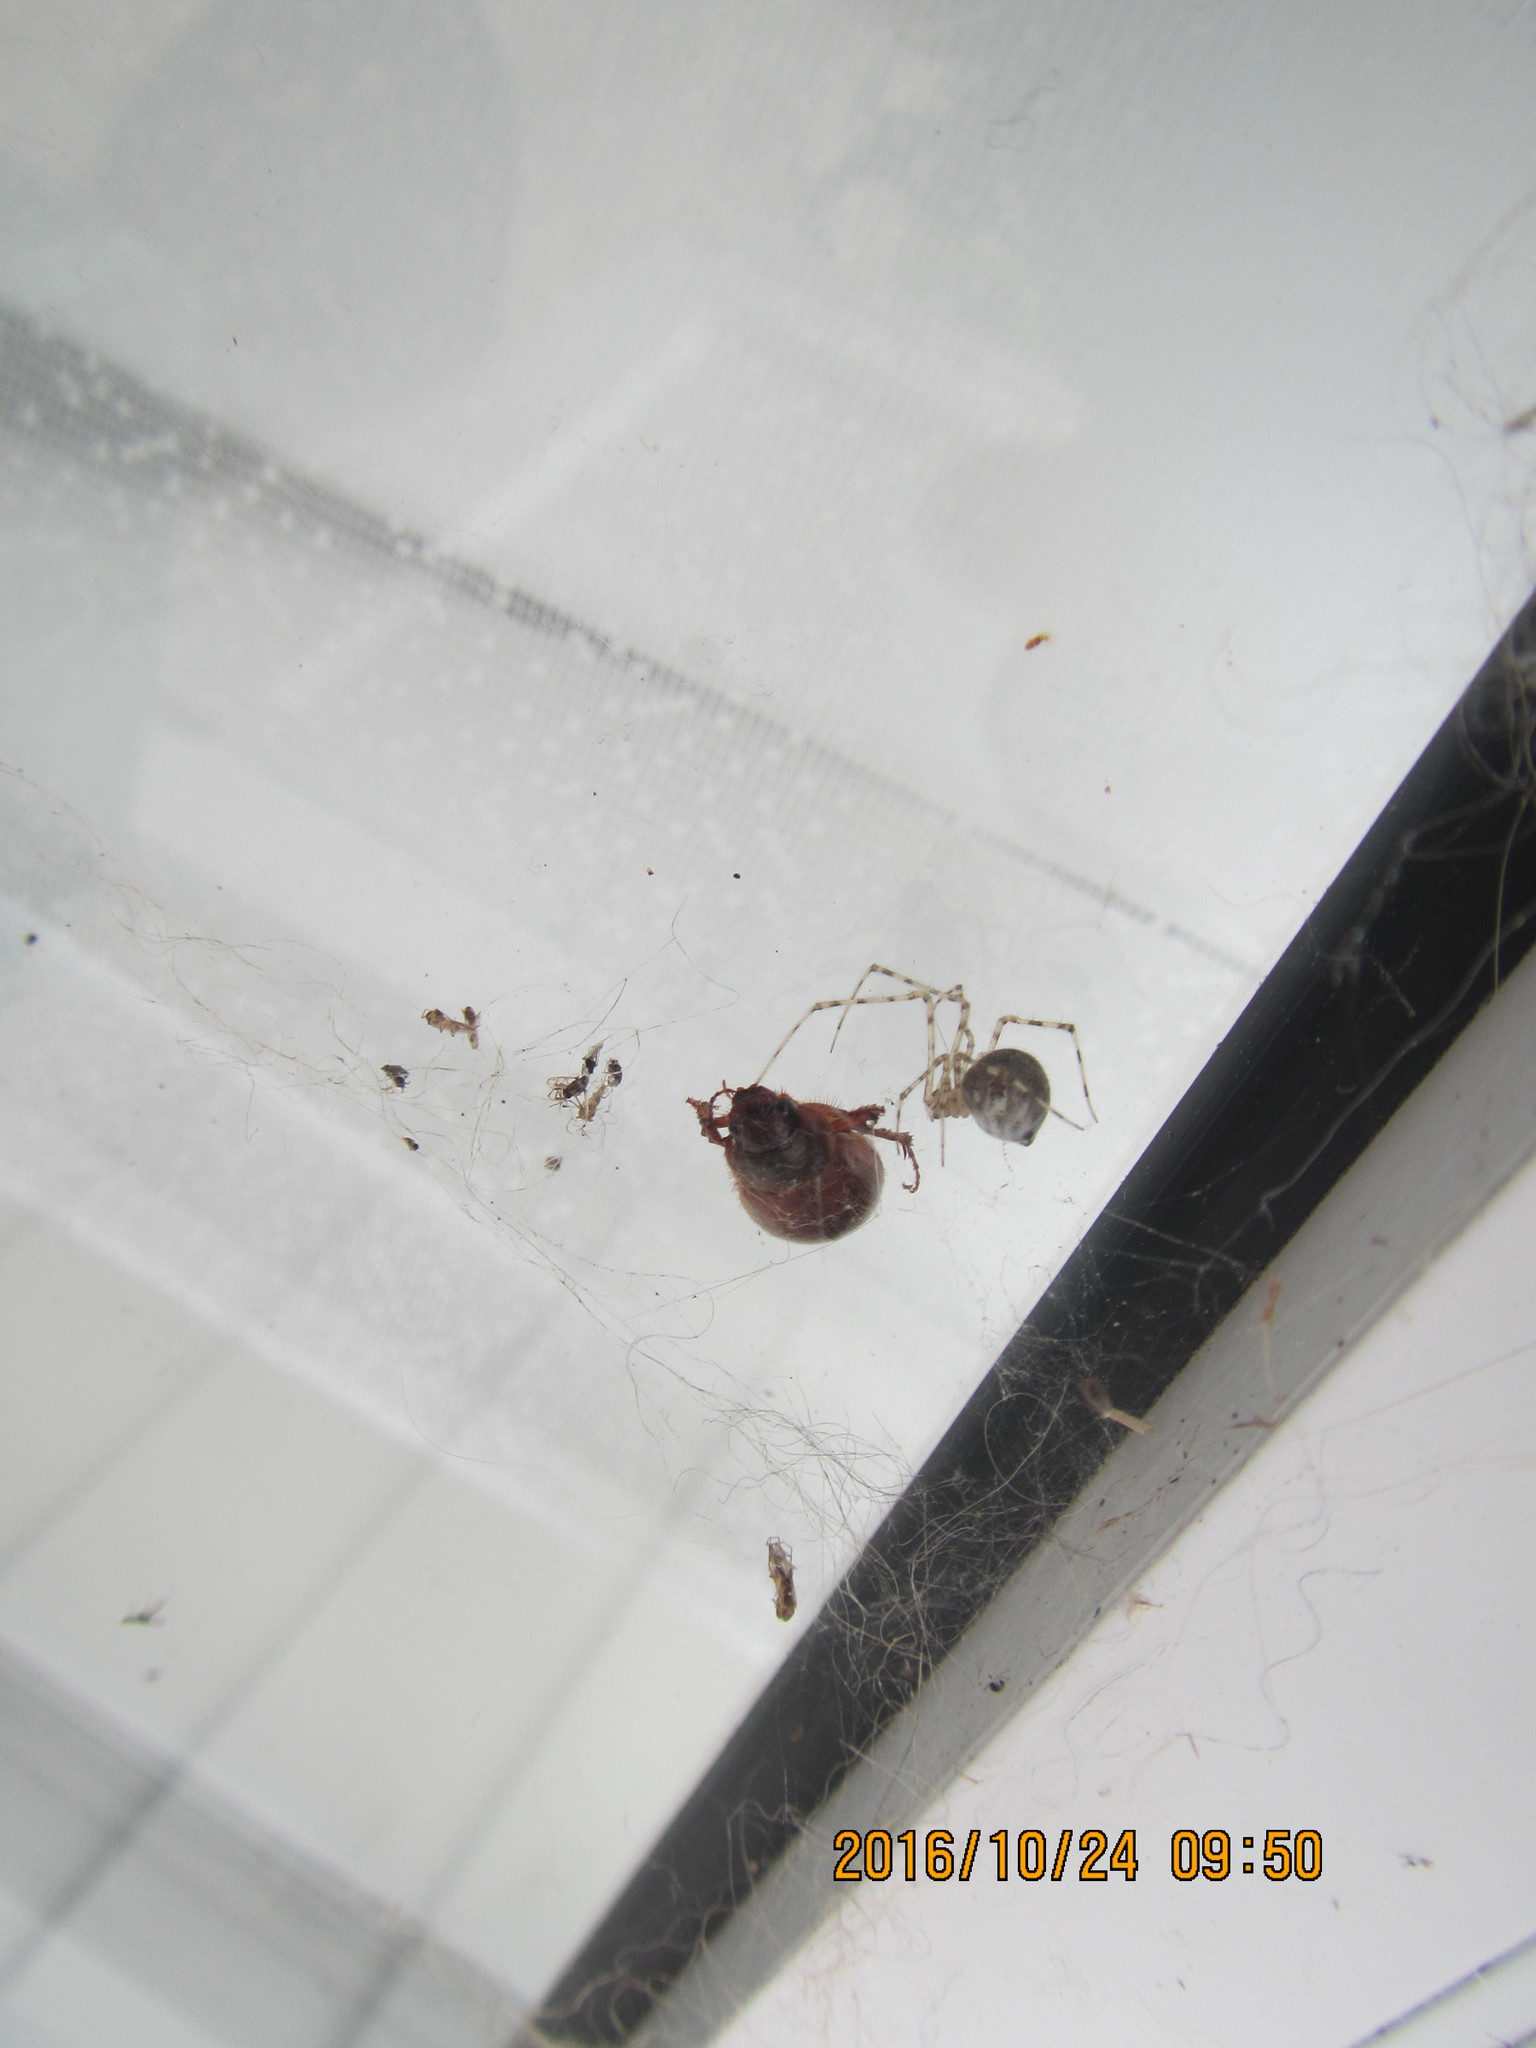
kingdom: Animalia
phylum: Arthropoda
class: Arachnida
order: Araneae
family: Theridiidae
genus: Cryptachaea
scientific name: Cryptachaea gigantipes
